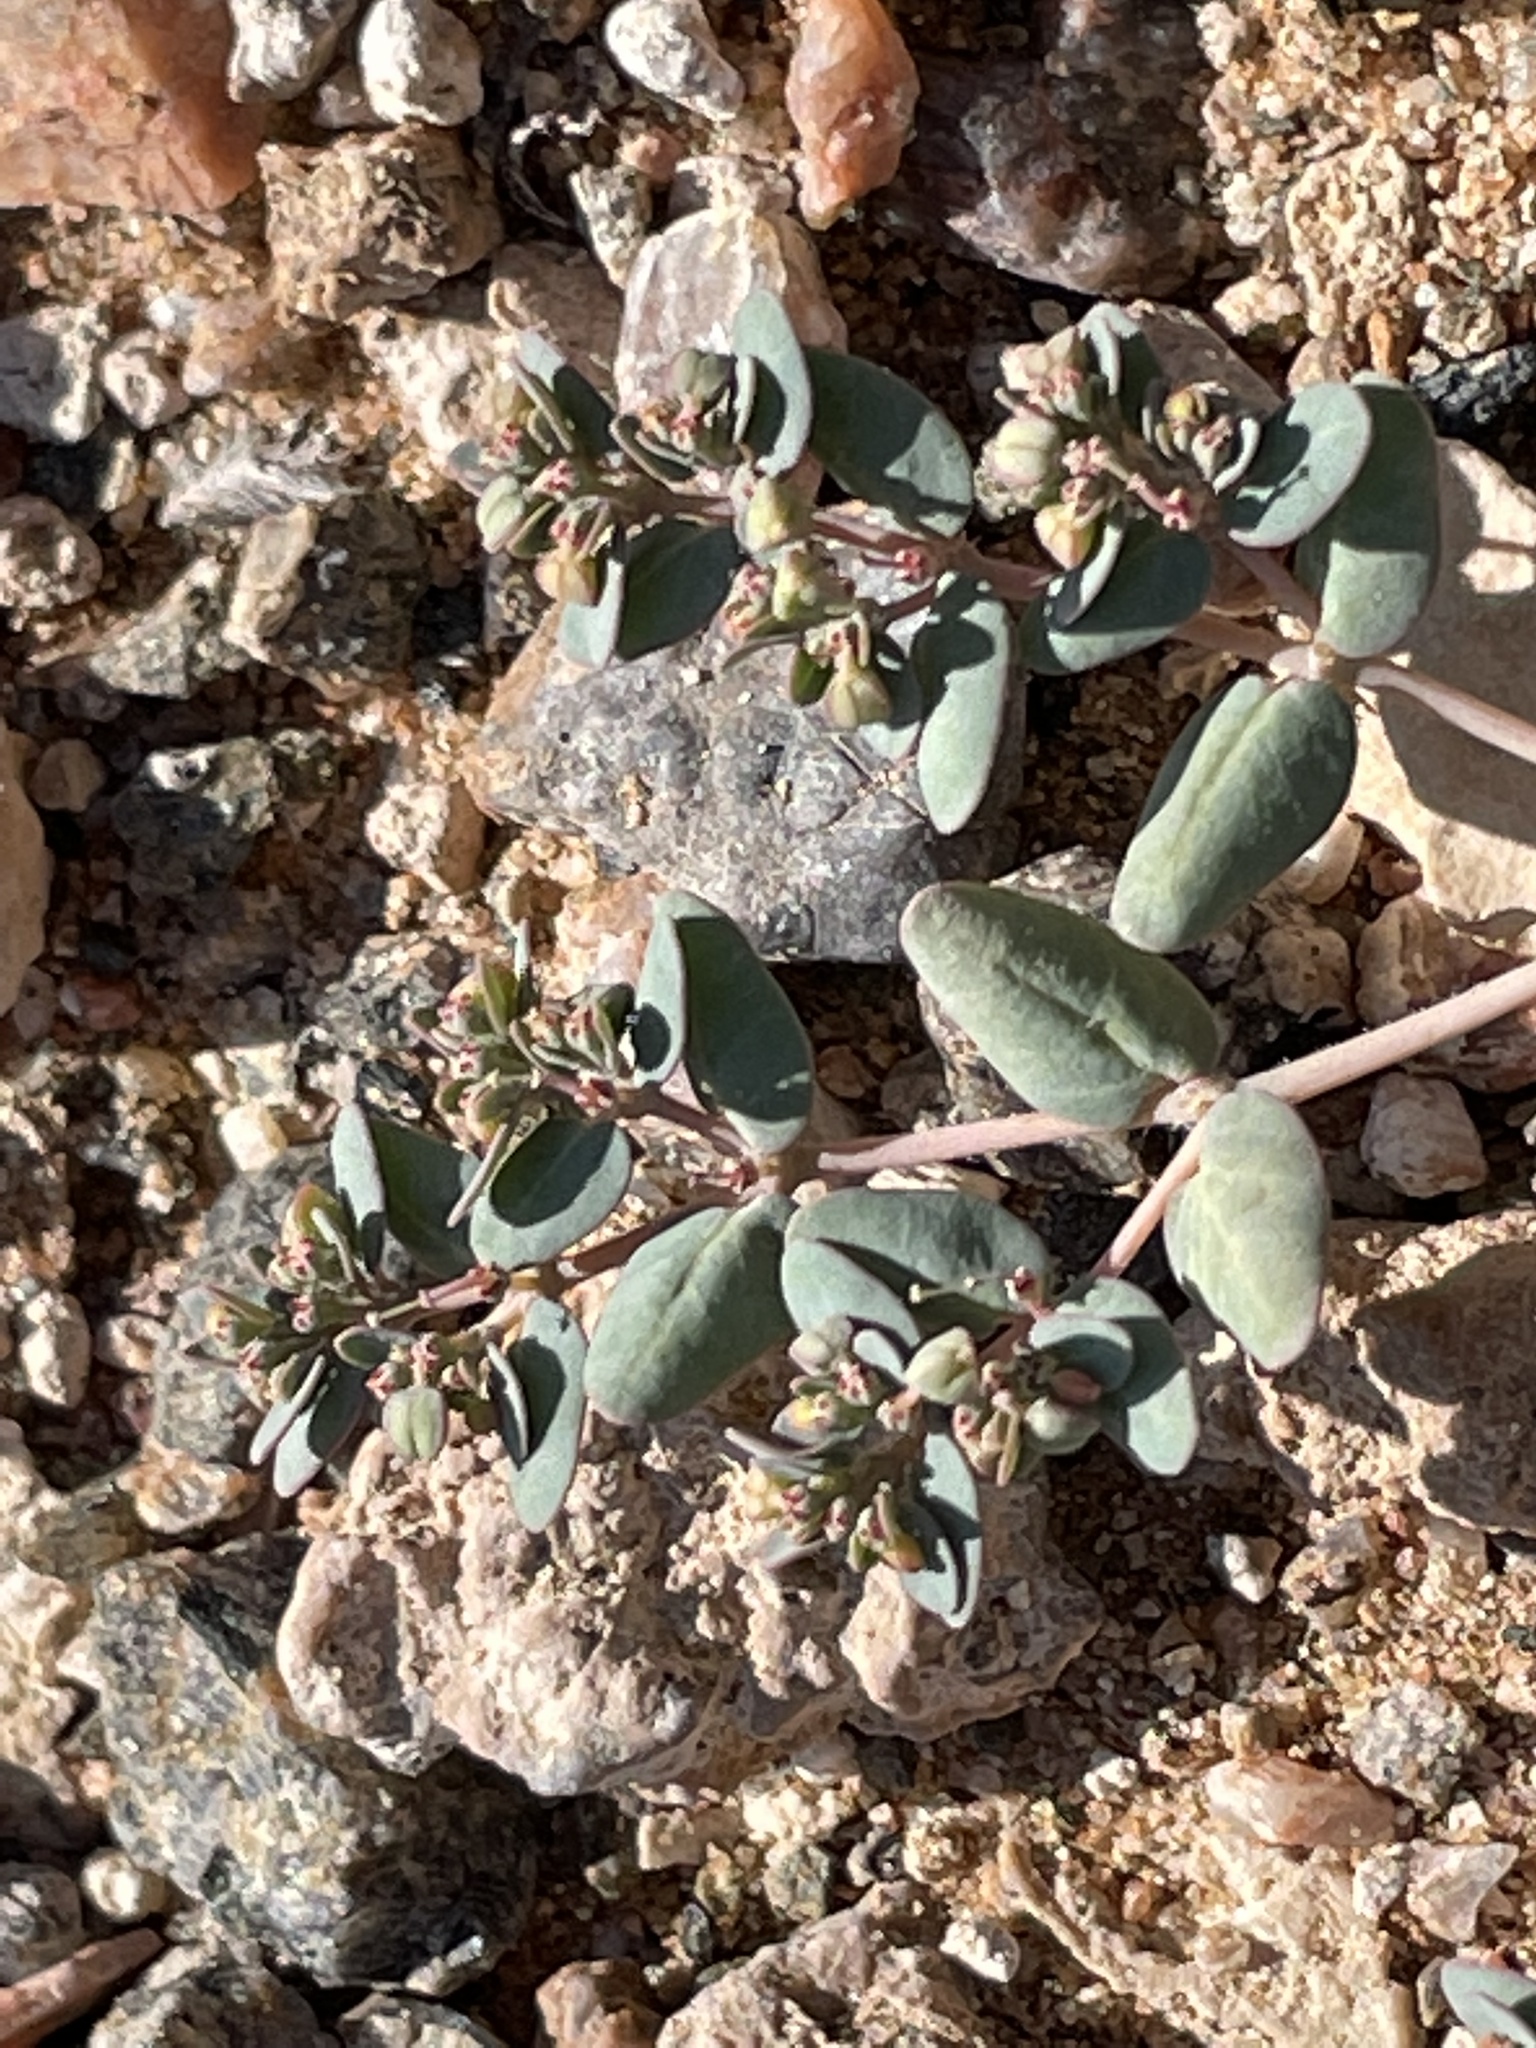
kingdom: Plantae
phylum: Tracheophyta
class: Magnoliopsida
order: Malpighiales
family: Euphorbiaceae
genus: Euphorbia
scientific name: Euphorbia micromera
